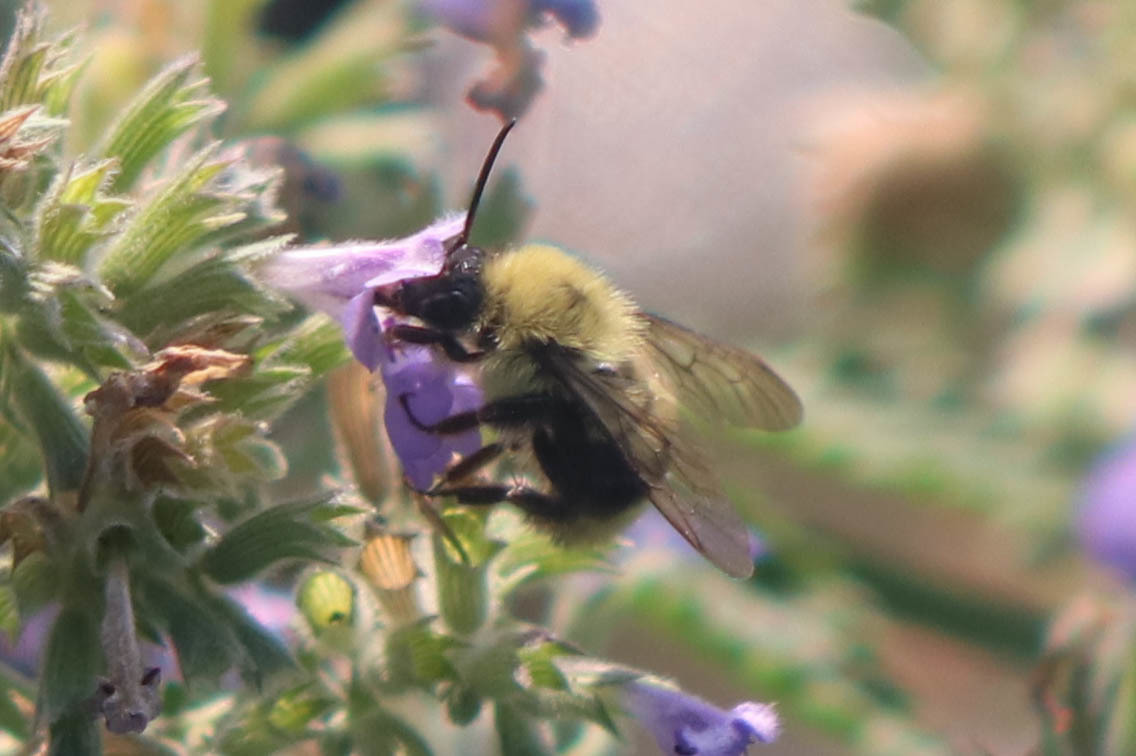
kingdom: Animalia
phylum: Arthropoda
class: Insecta
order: Hymenoptera
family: Apidae
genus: Bombus
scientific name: Bombus bimaculatus
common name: Two-spotted bumble bee
